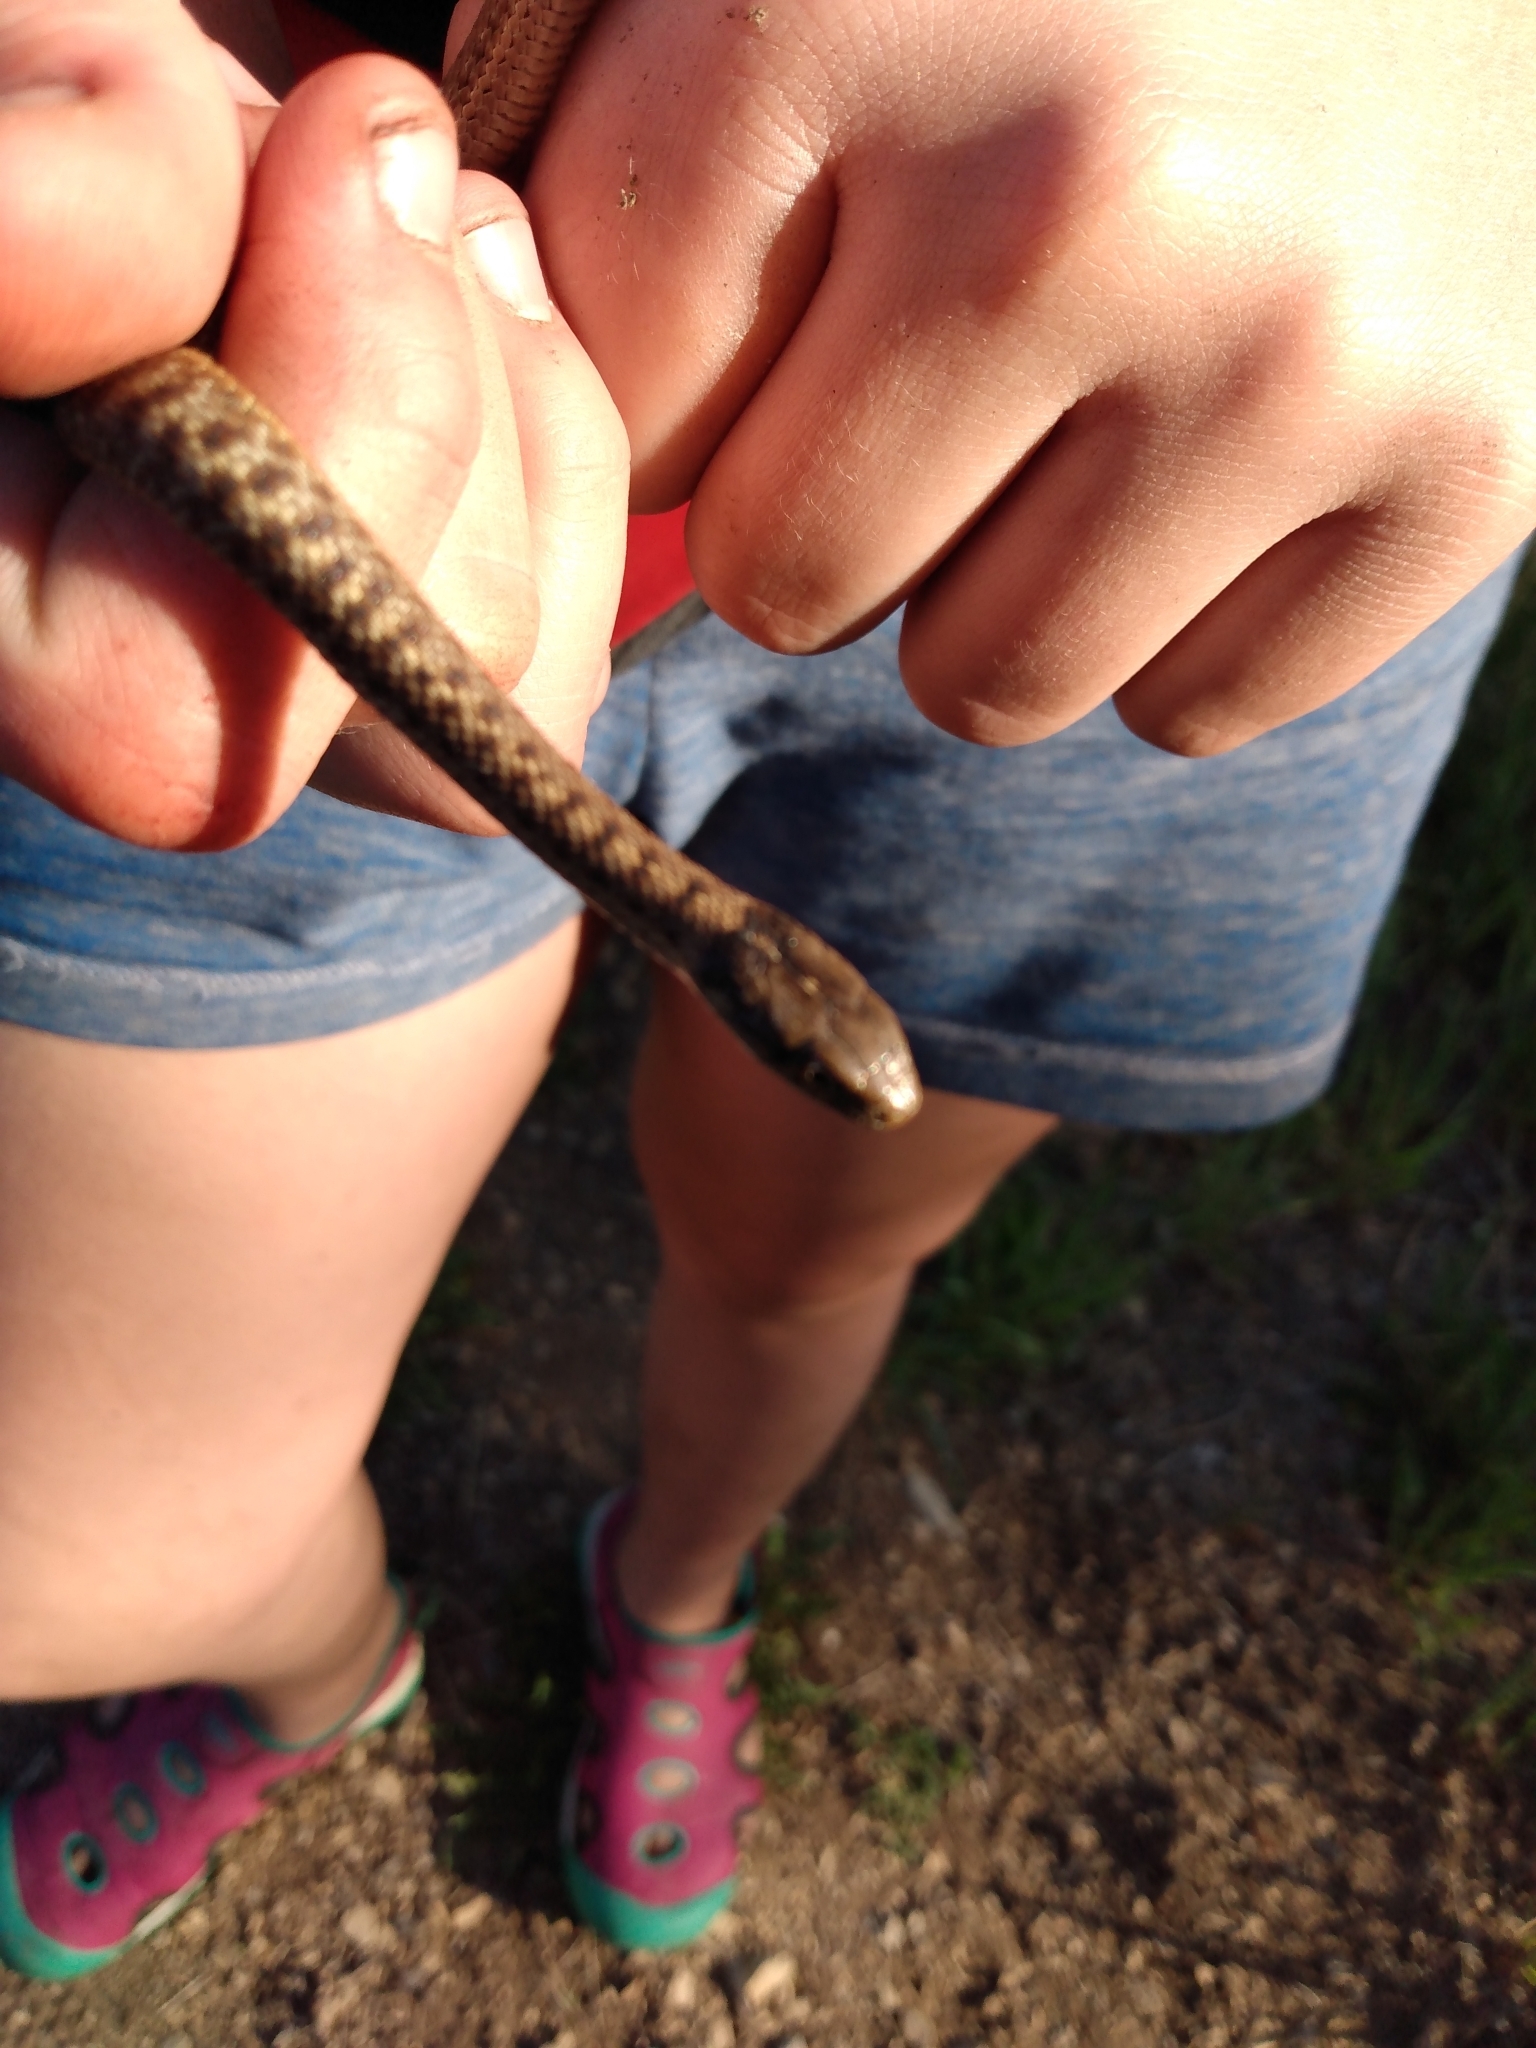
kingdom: Animalia
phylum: Chordata
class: Squamata
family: Colubridae
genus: Thamnophis
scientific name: Thamnophis elegans
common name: Western terrestrial garter snake
